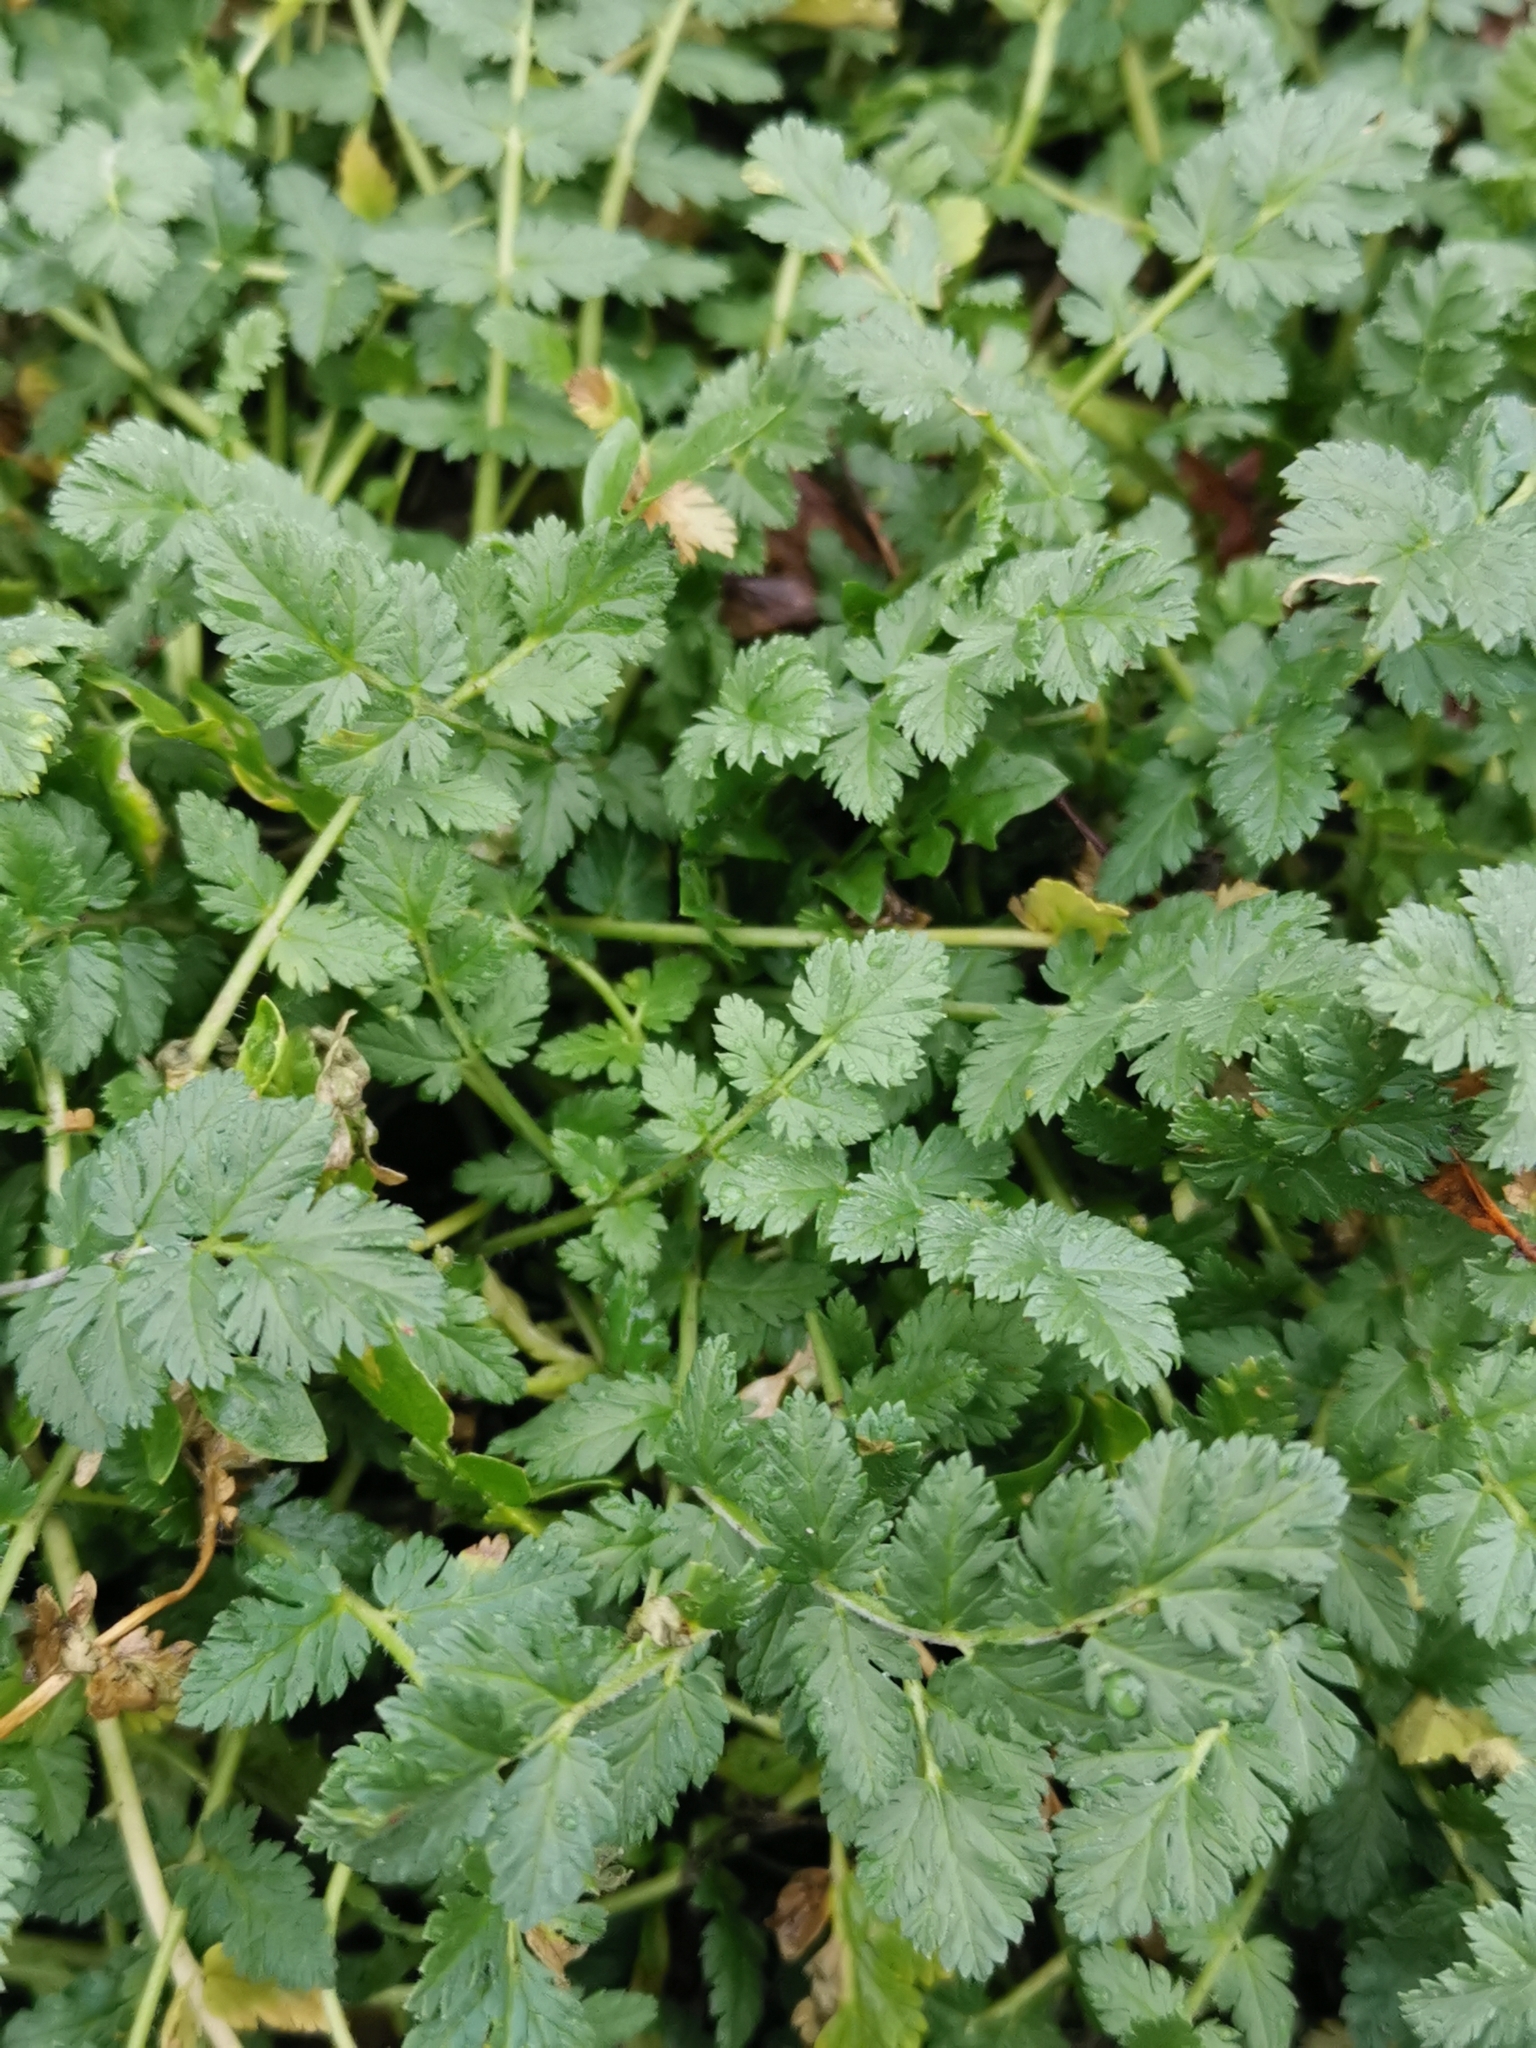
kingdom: Plantae
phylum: Tracheophyta
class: Magnoliopsida
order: Geraniales
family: Geraniaceae
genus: Erodium
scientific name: Erodium cicutarium
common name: Common stork's-bill
